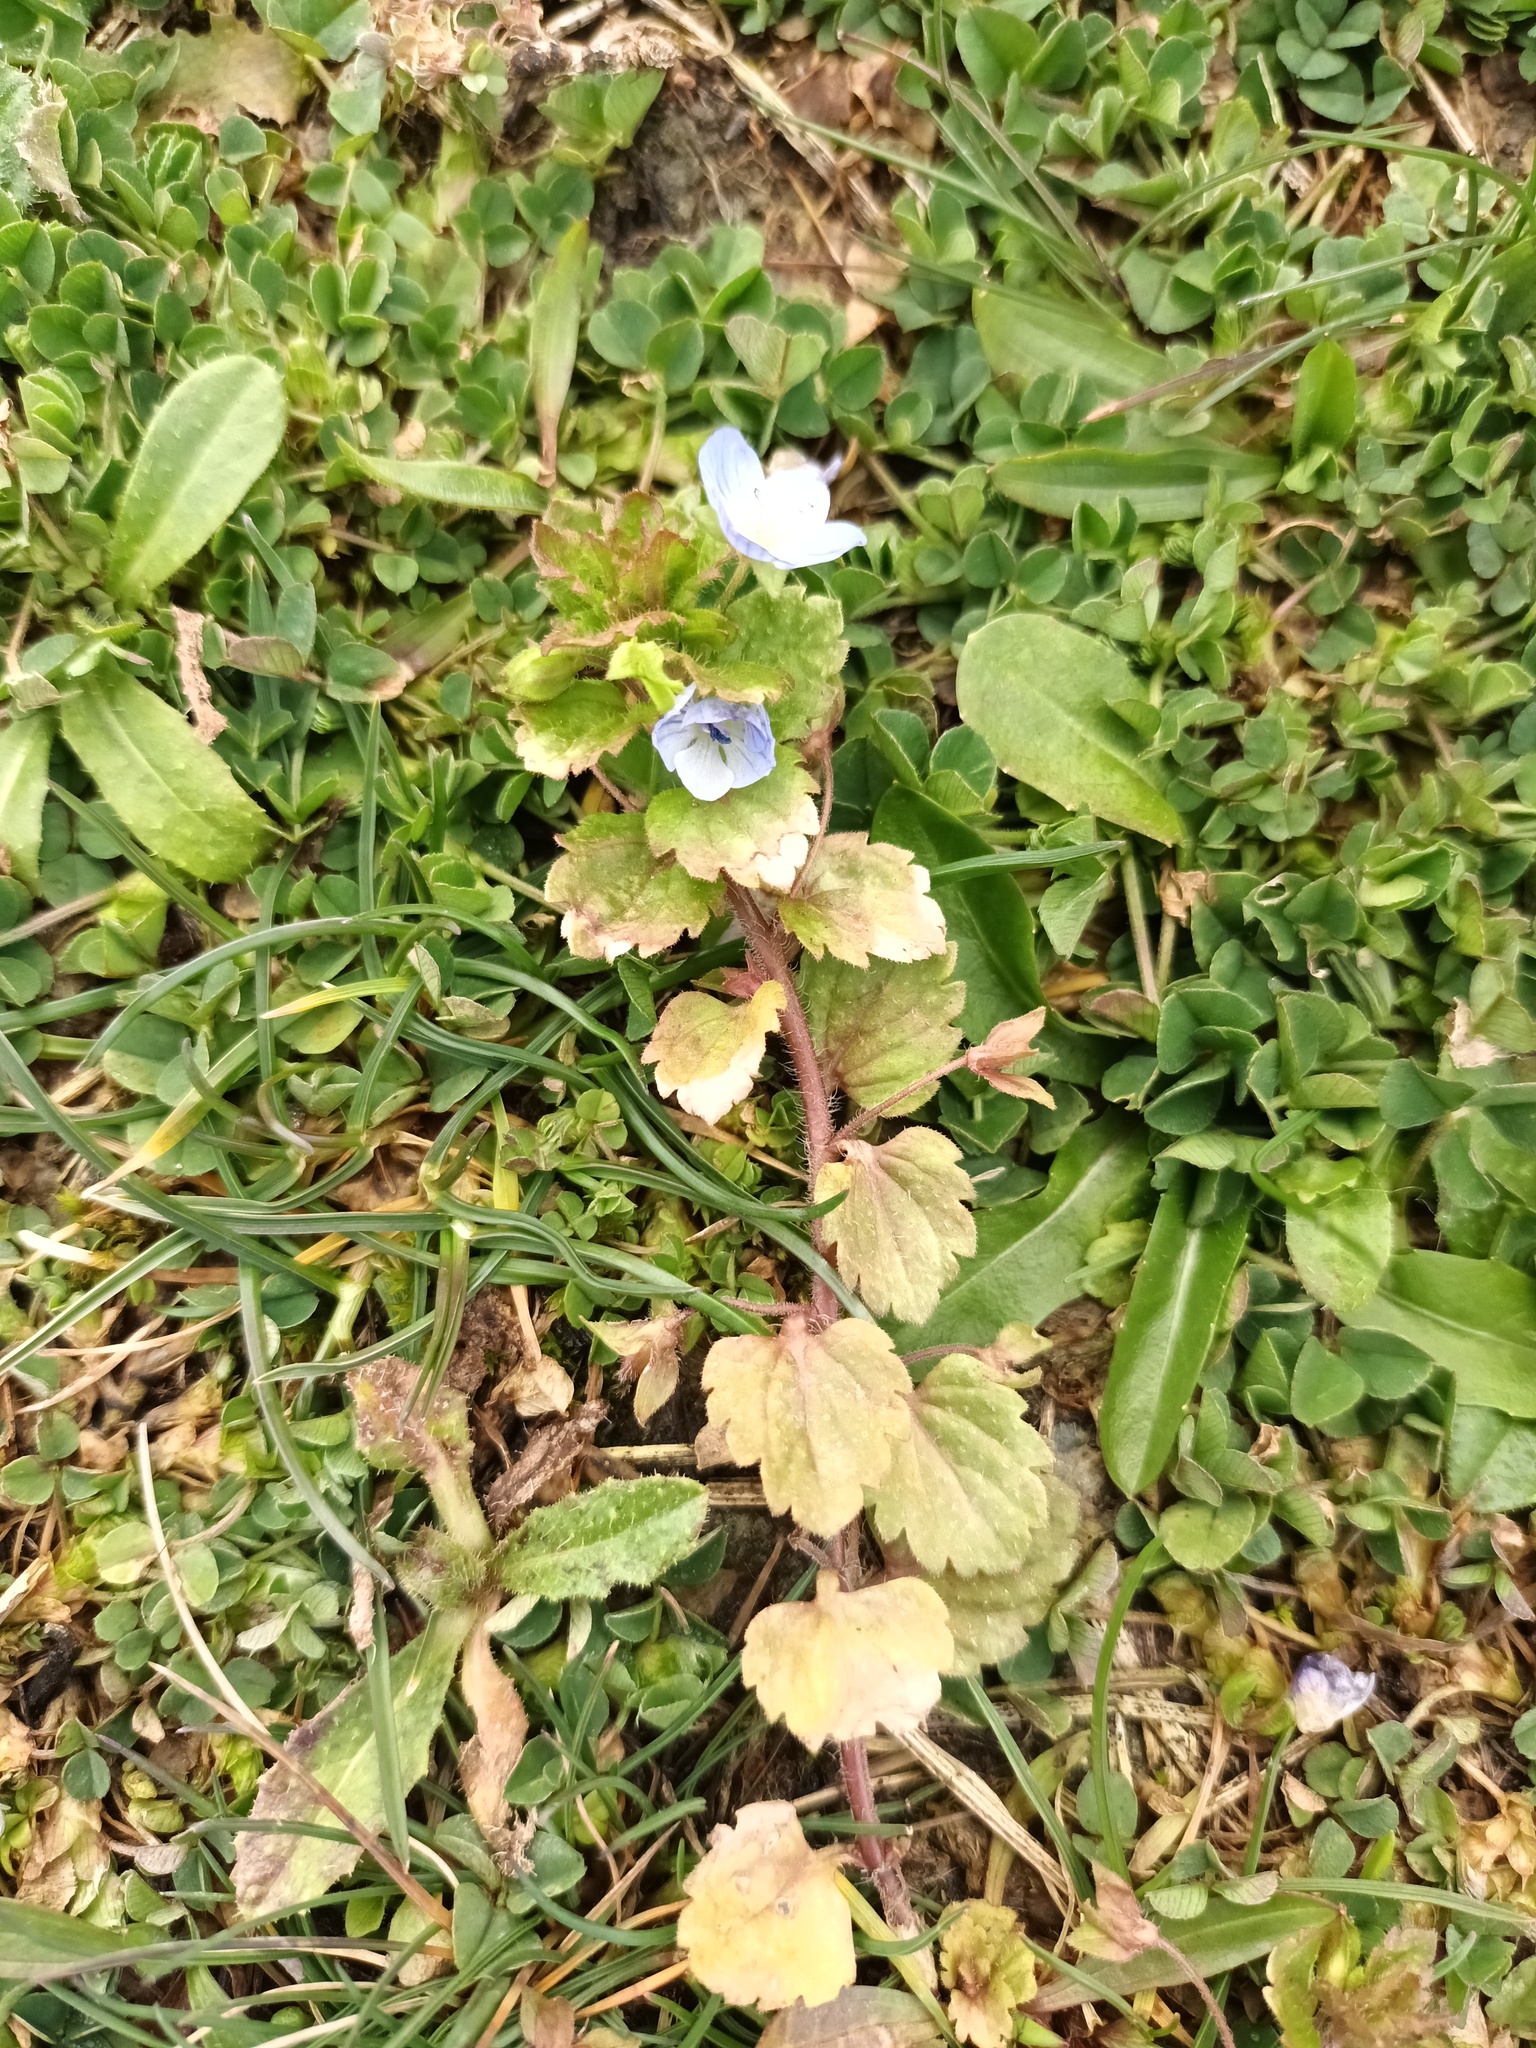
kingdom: Plantae
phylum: Tracheophyta
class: Magnoliopsida
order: Lamiales
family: Plantaginaceae
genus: Veronica
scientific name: Veronica persica
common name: Common field-speedwell
